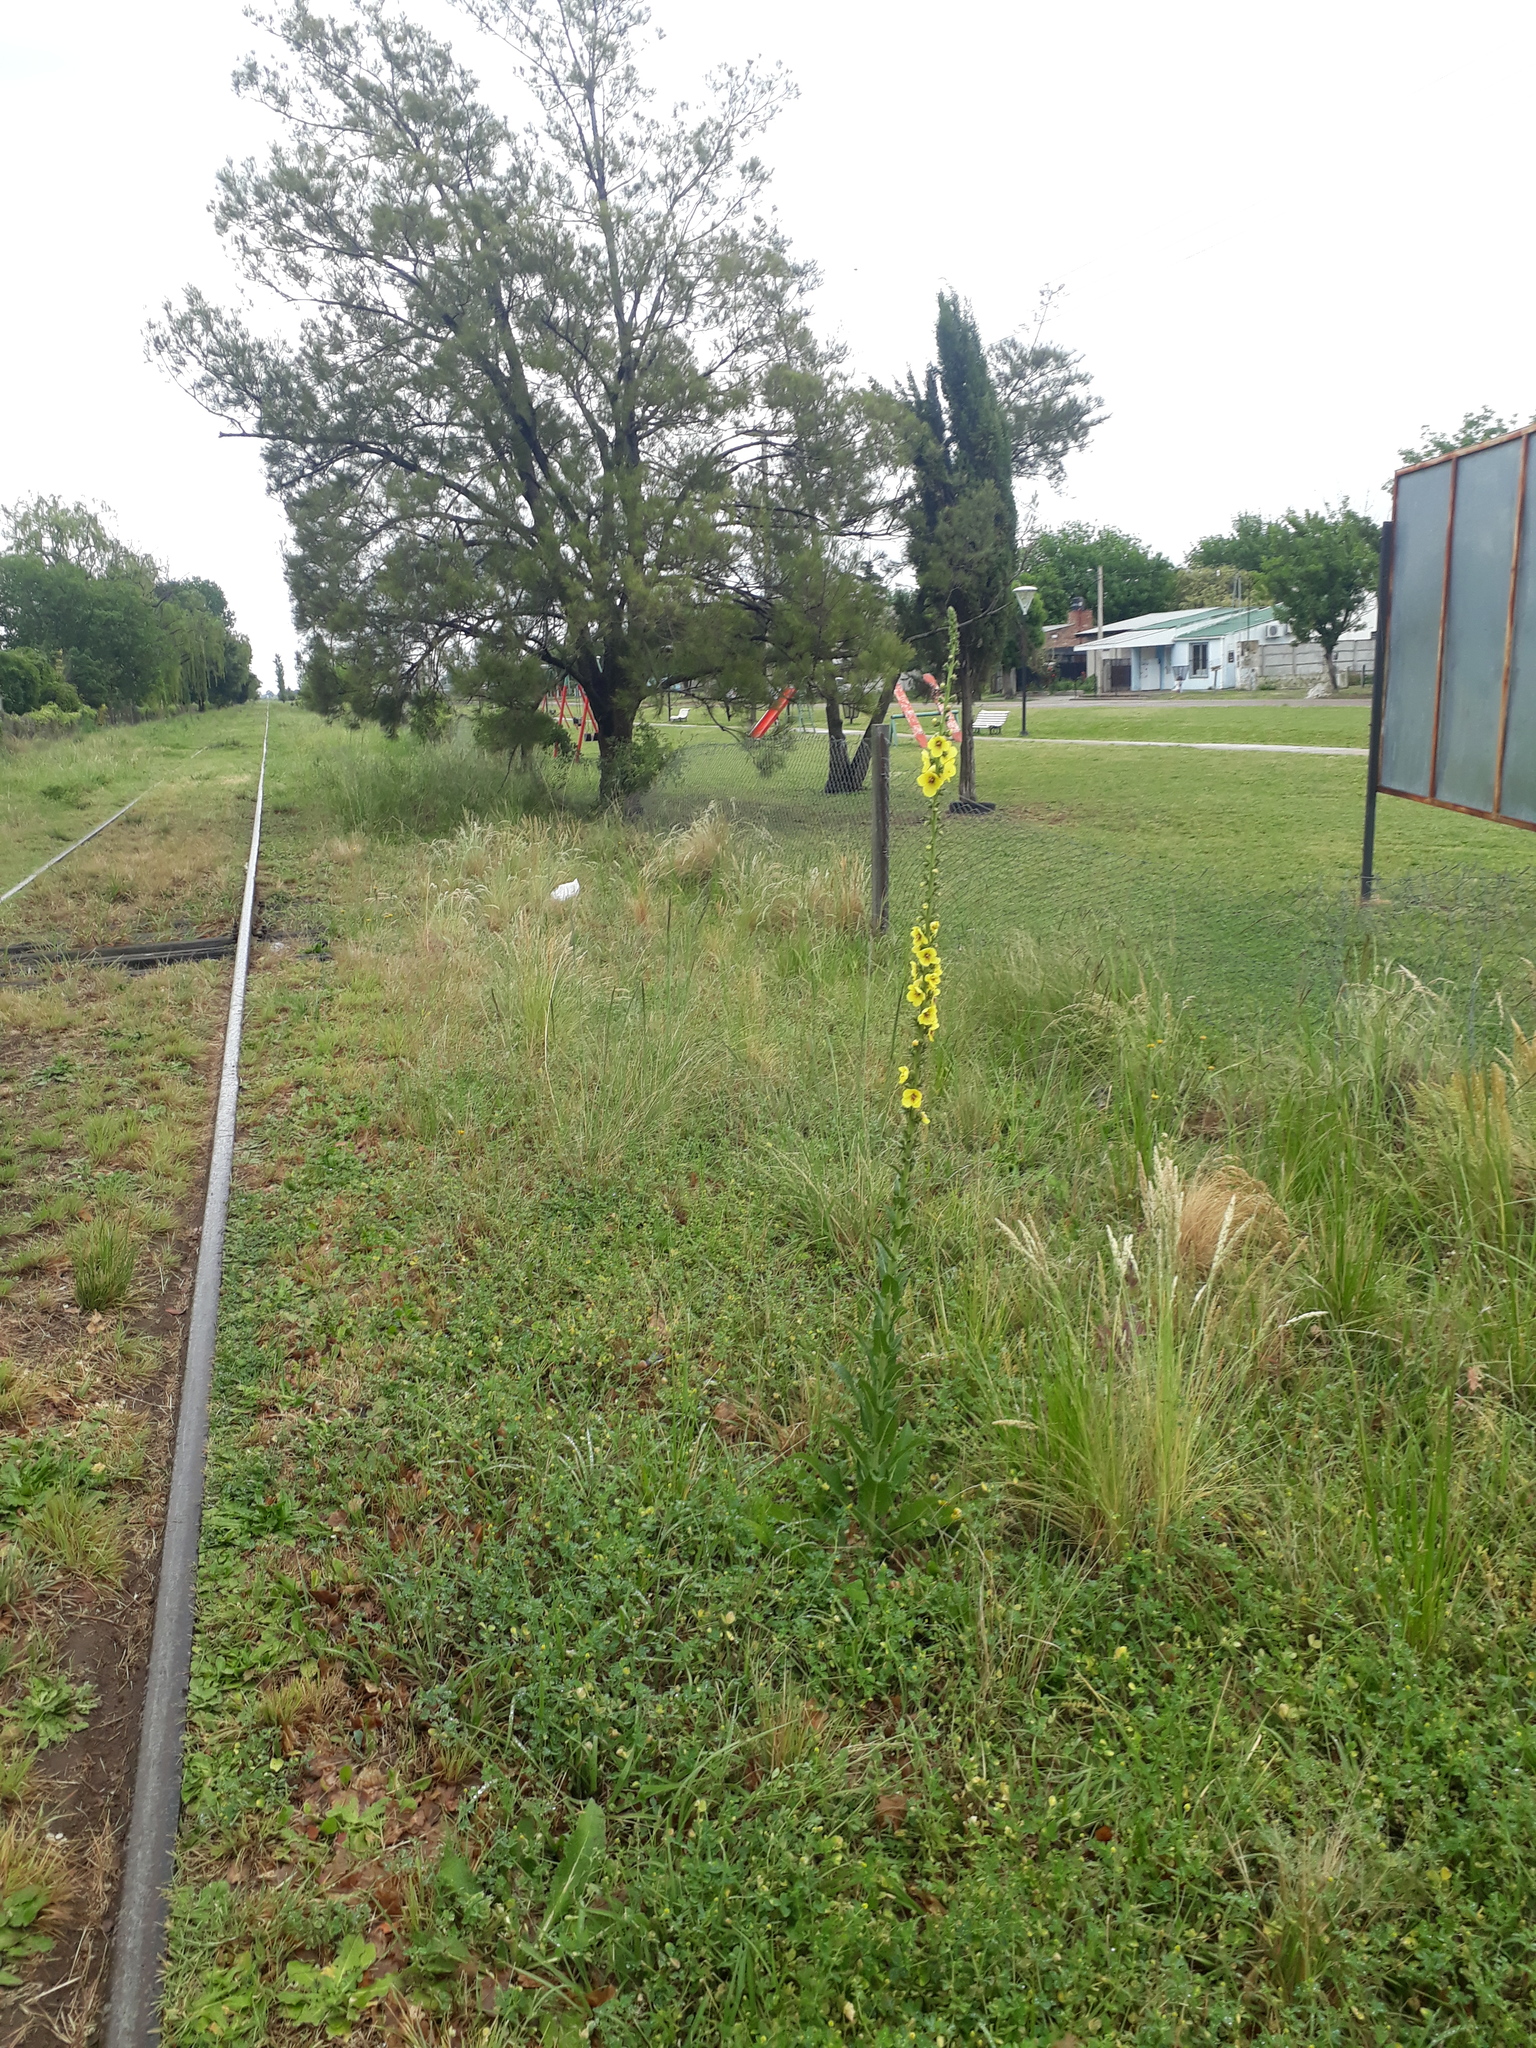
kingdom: Plantae
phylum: Tracheophyta
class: Magnoliopsida
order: Lamiales
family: Scrophulariaceae
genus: Verbascum
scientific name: Verbascum virgatum
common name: Twiggy mullein
